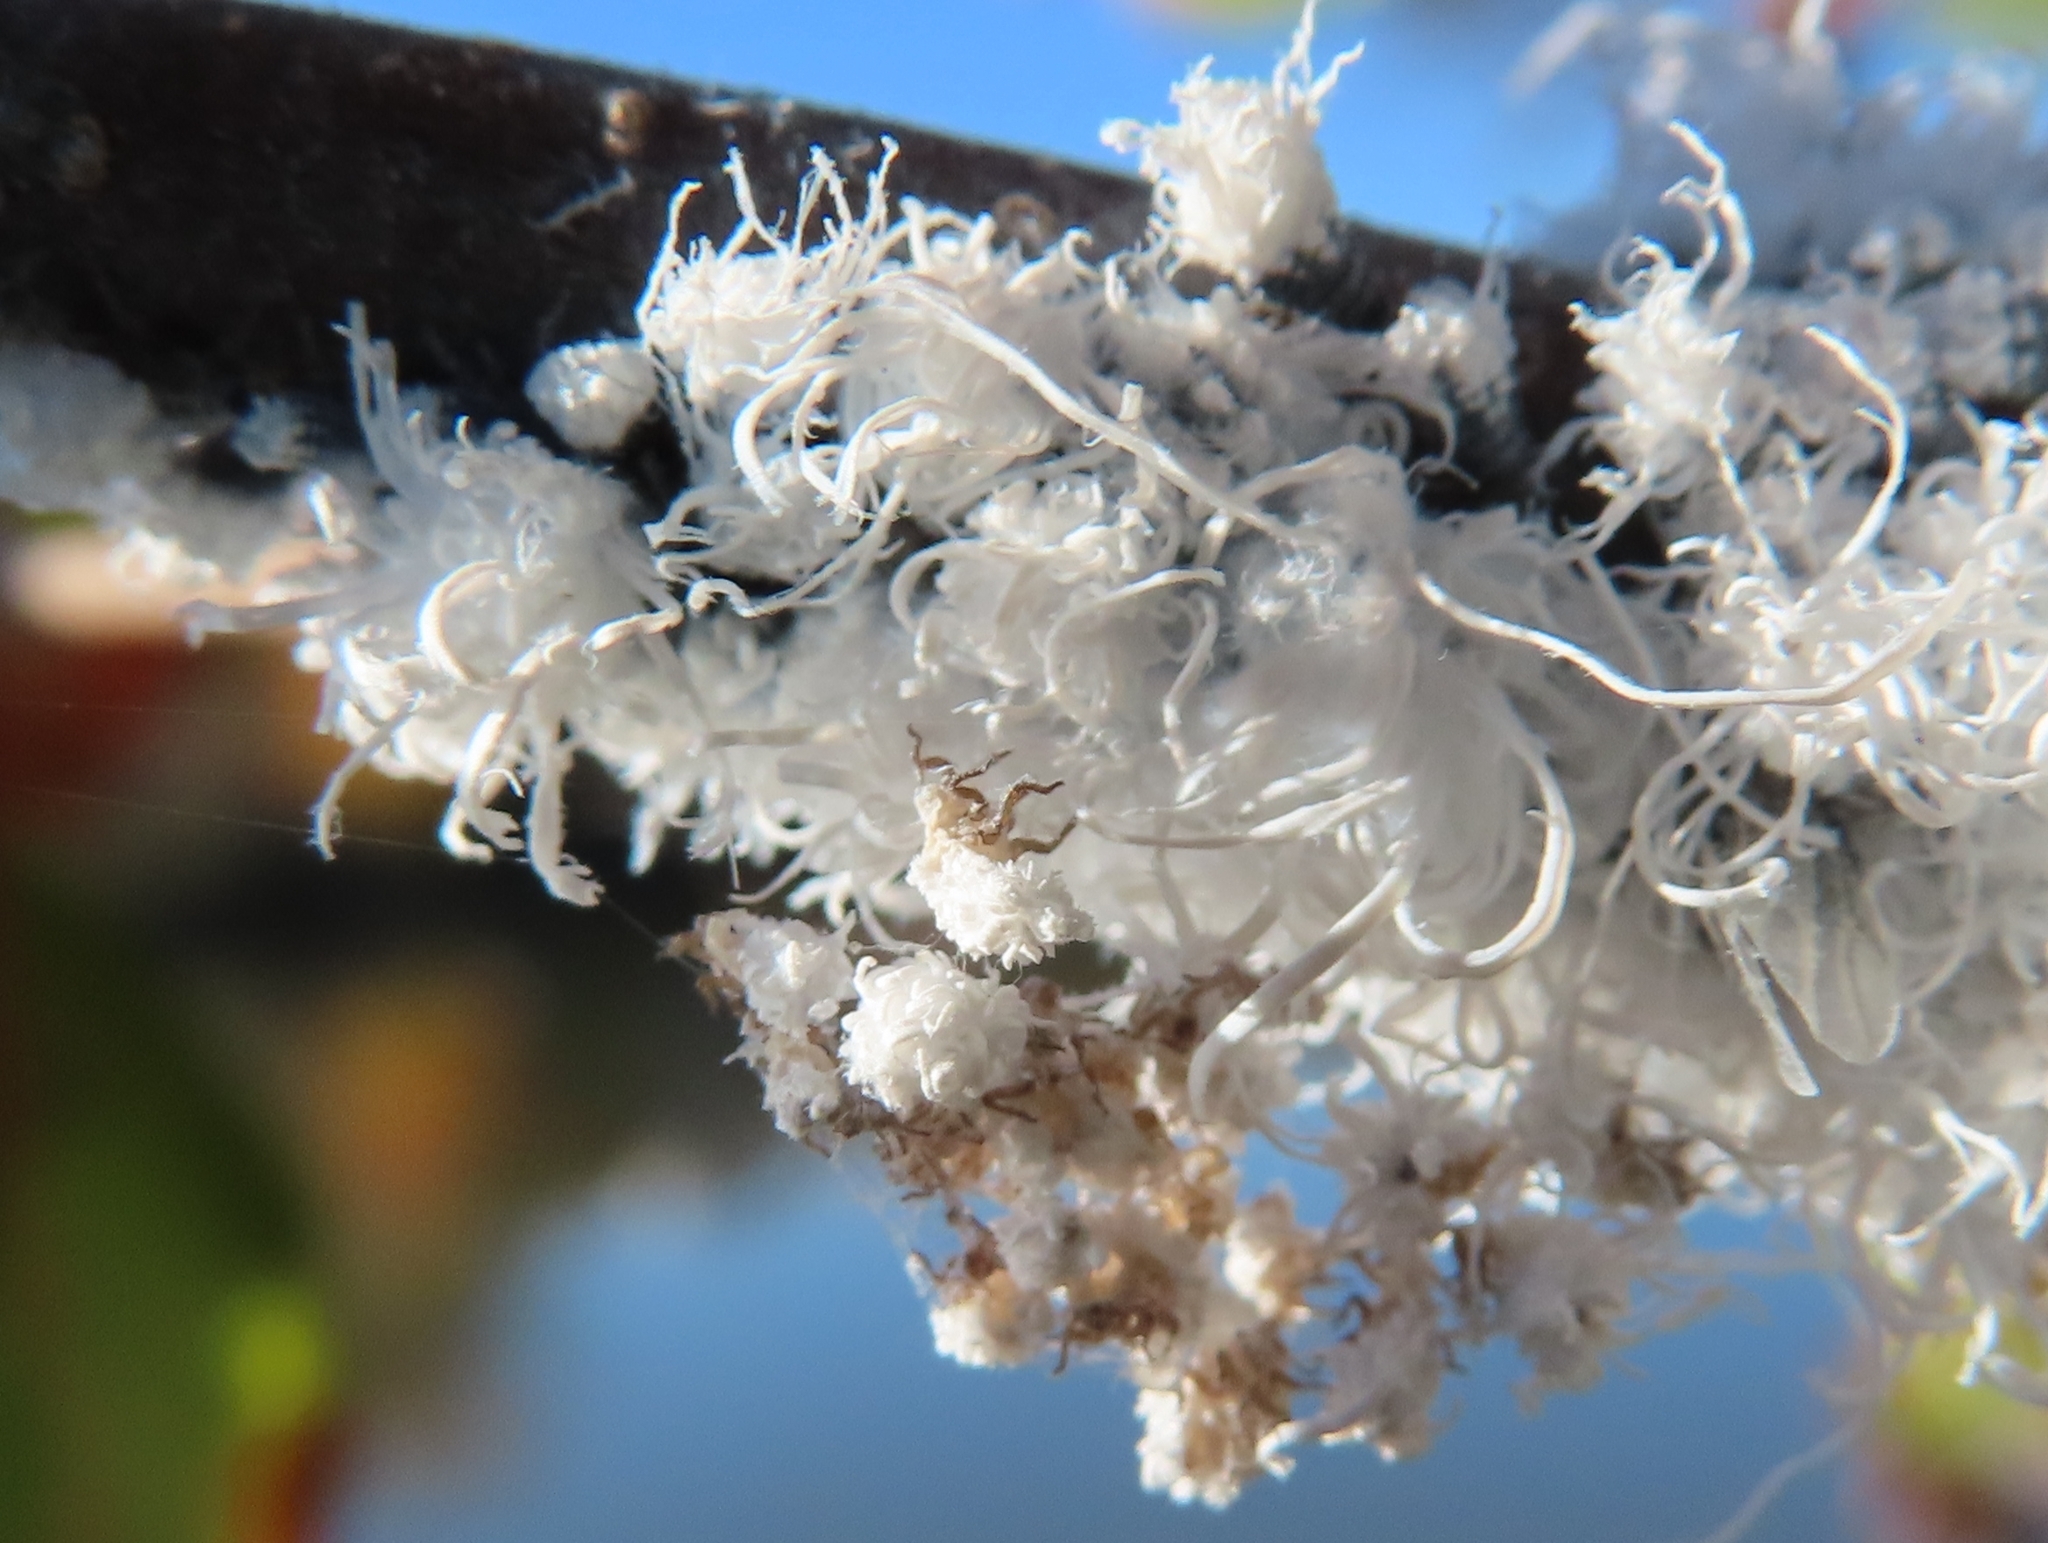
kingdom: Animalia
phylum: Arthropoda
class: Insecta
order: Hemiptera
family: Aphididae
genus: Prociphilus
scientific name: Prociphilus tessellatus
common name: Woolly alder aphid
